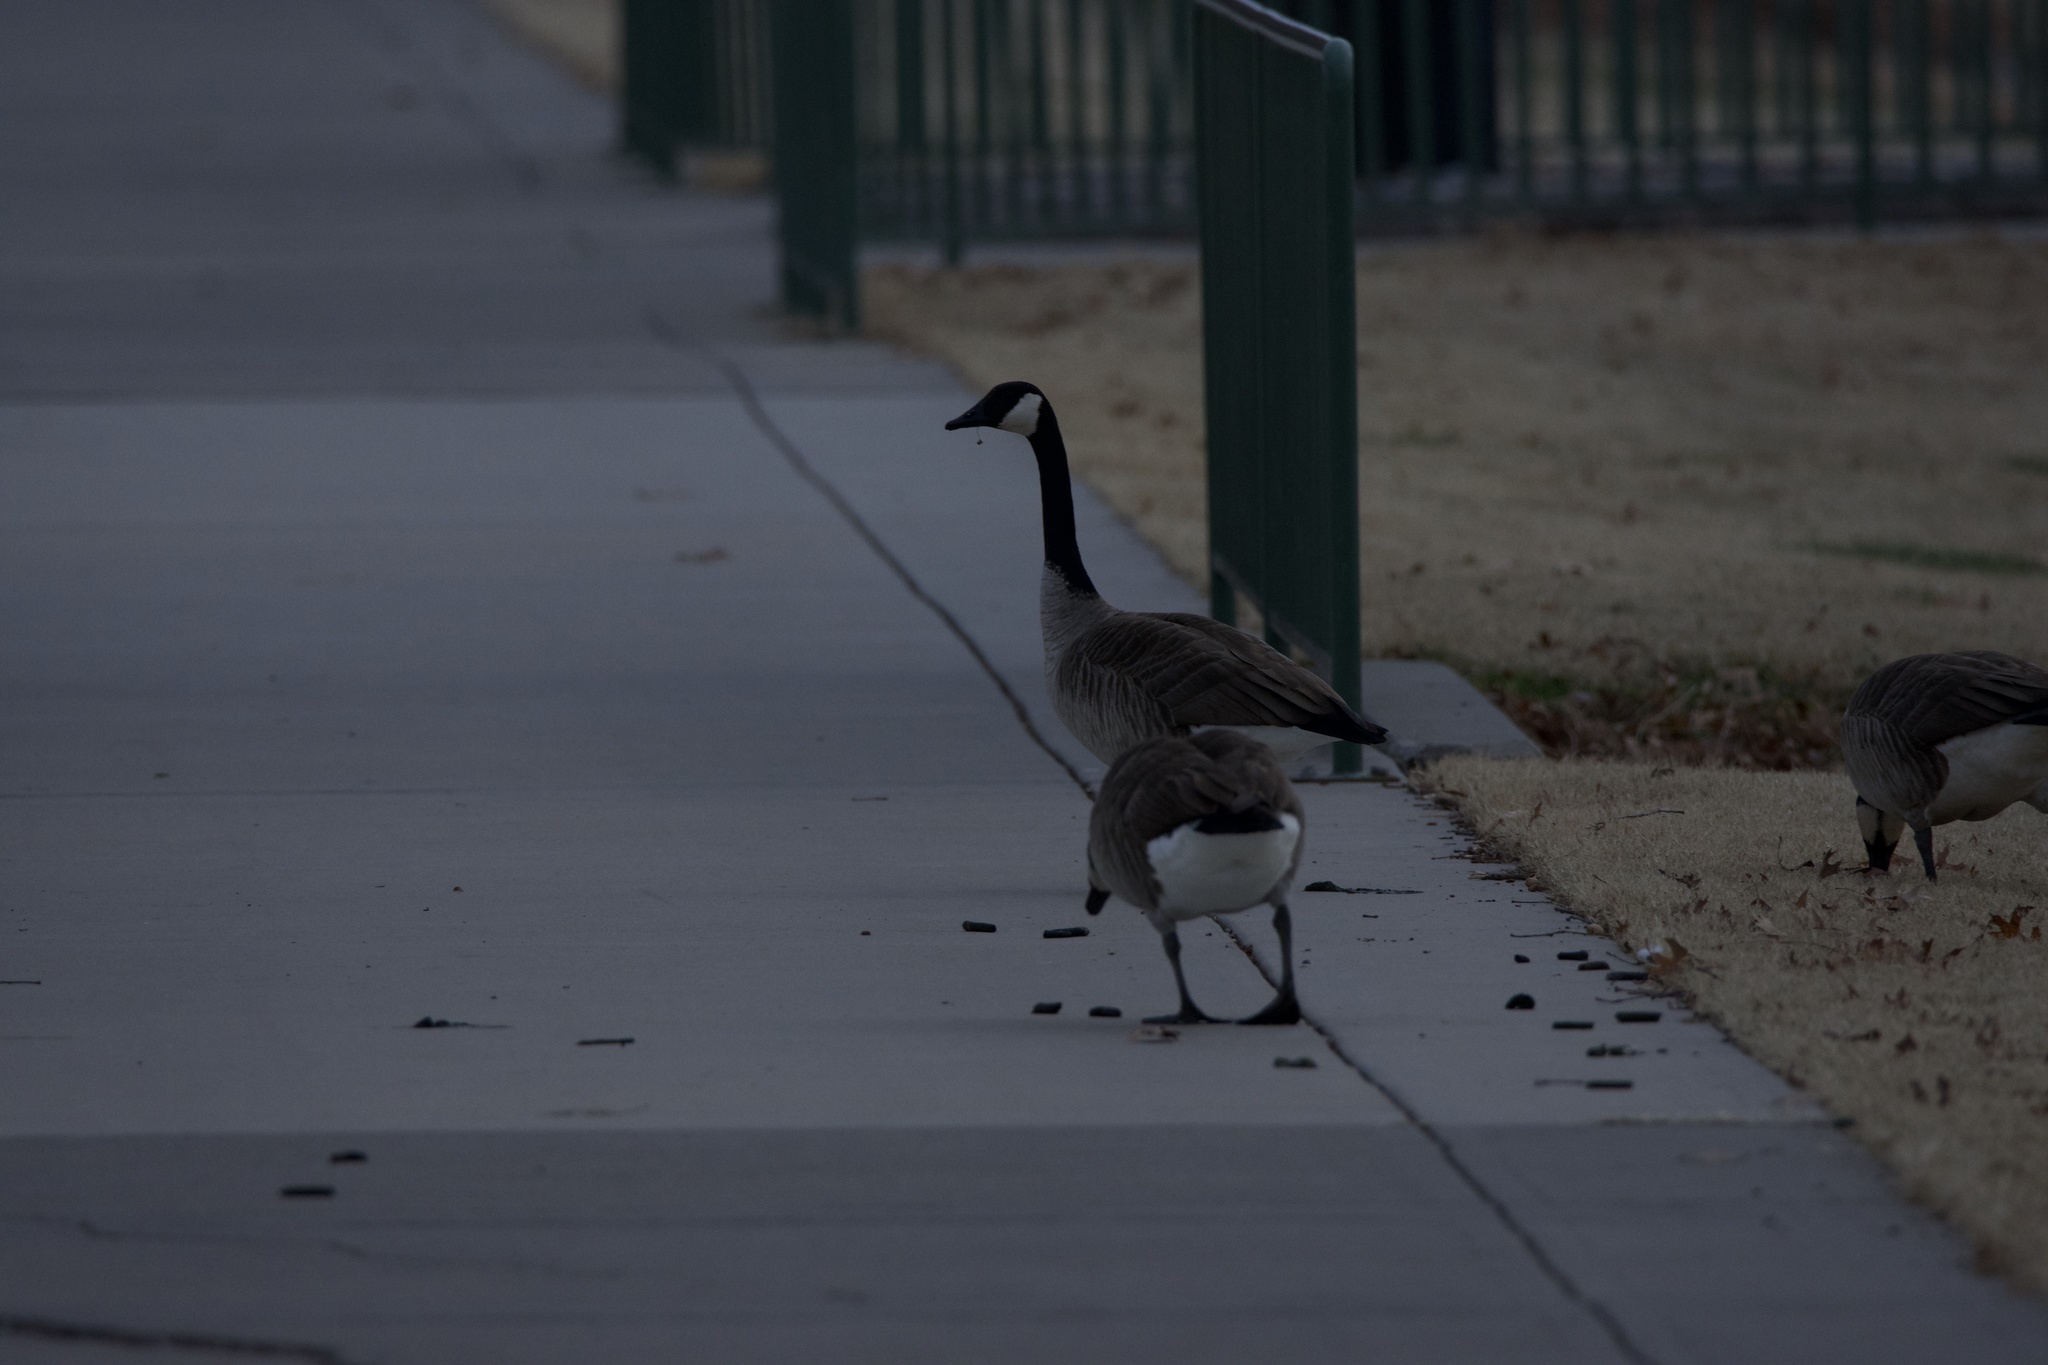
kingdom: Animalia
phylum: Chordata
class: Aves
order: Anseriformes
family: Anatidae
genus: Branta
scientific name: Branta canadensis
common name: Canada goose
